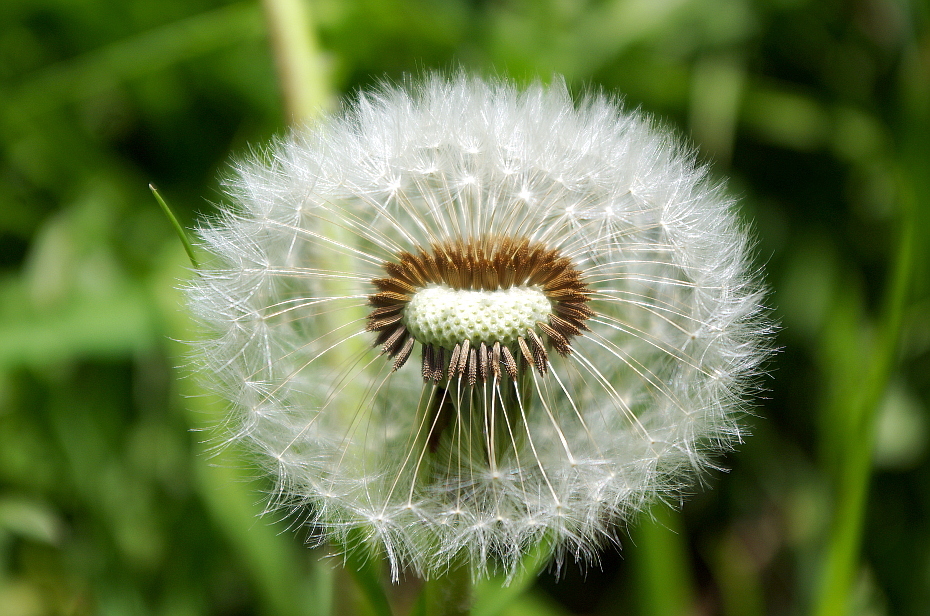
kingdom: Plantae
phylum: Tracheophyta
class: Magnoliopsida
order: Asterales
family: Asteraceae
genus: Taraxacum
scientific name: Taraxacum officinale
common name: Common dandelion
